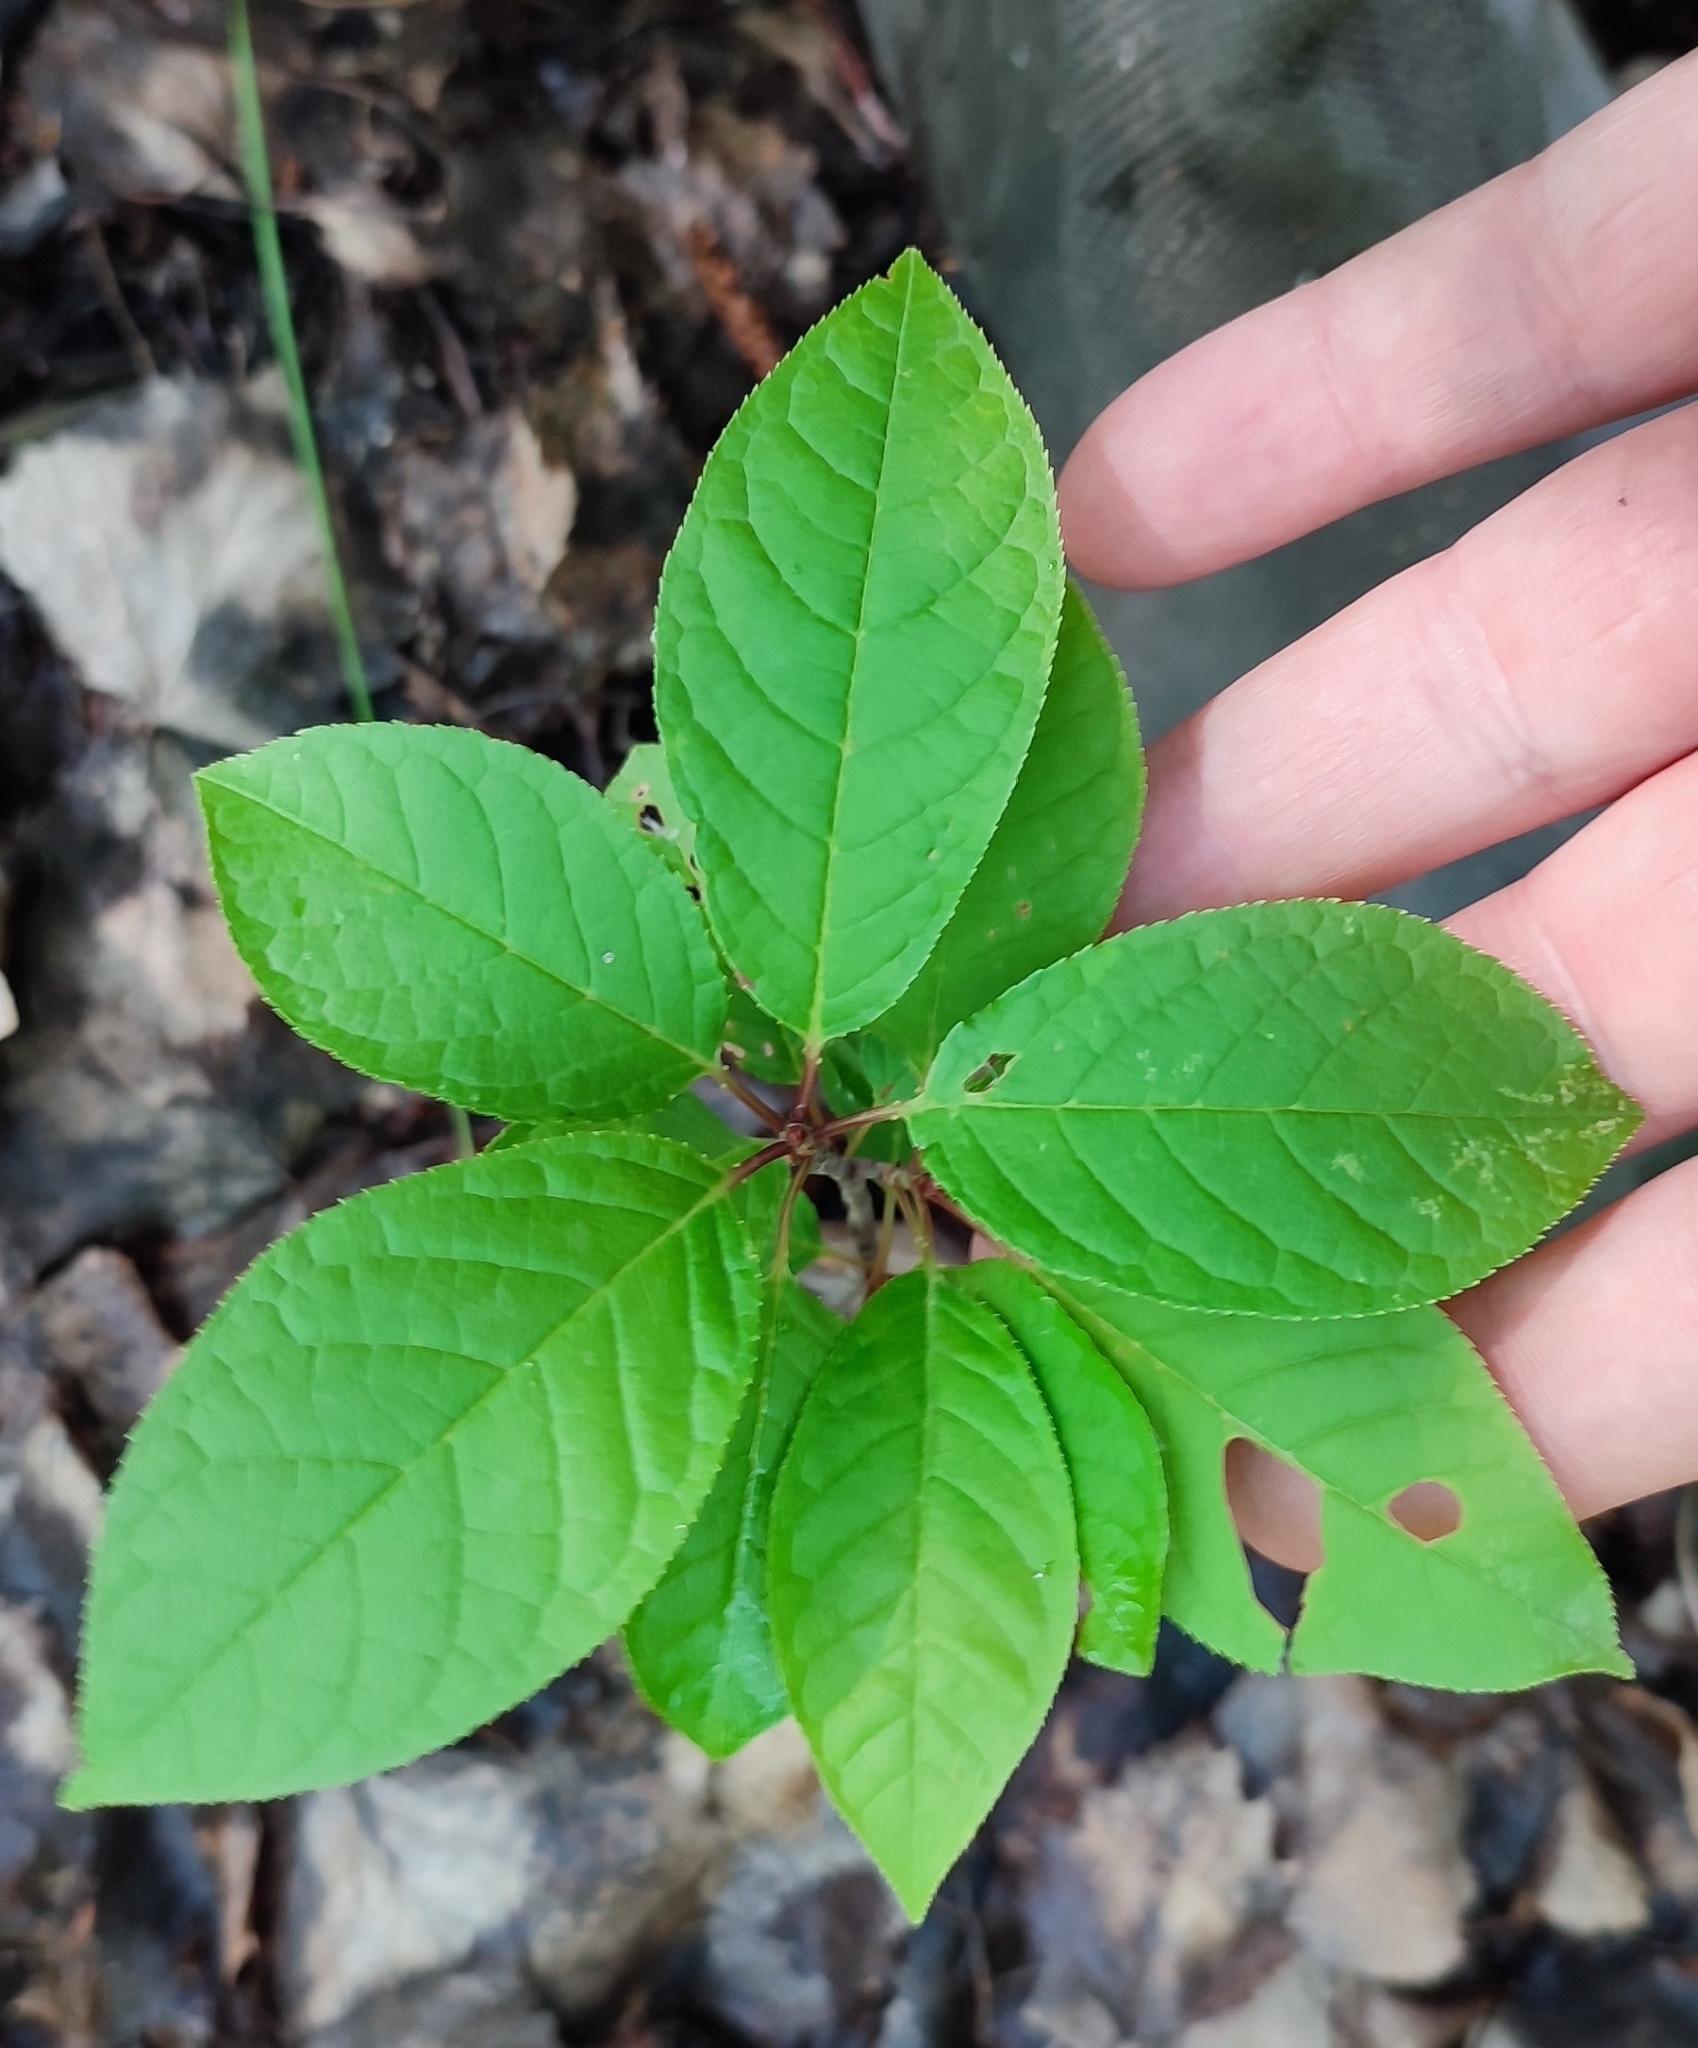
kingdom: Plantae
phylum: Tracheophyta
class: Magnoliopsida
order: Rosales
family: Rosaceae
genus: Prunus
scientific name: Prunus padus
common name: Bird cherry
